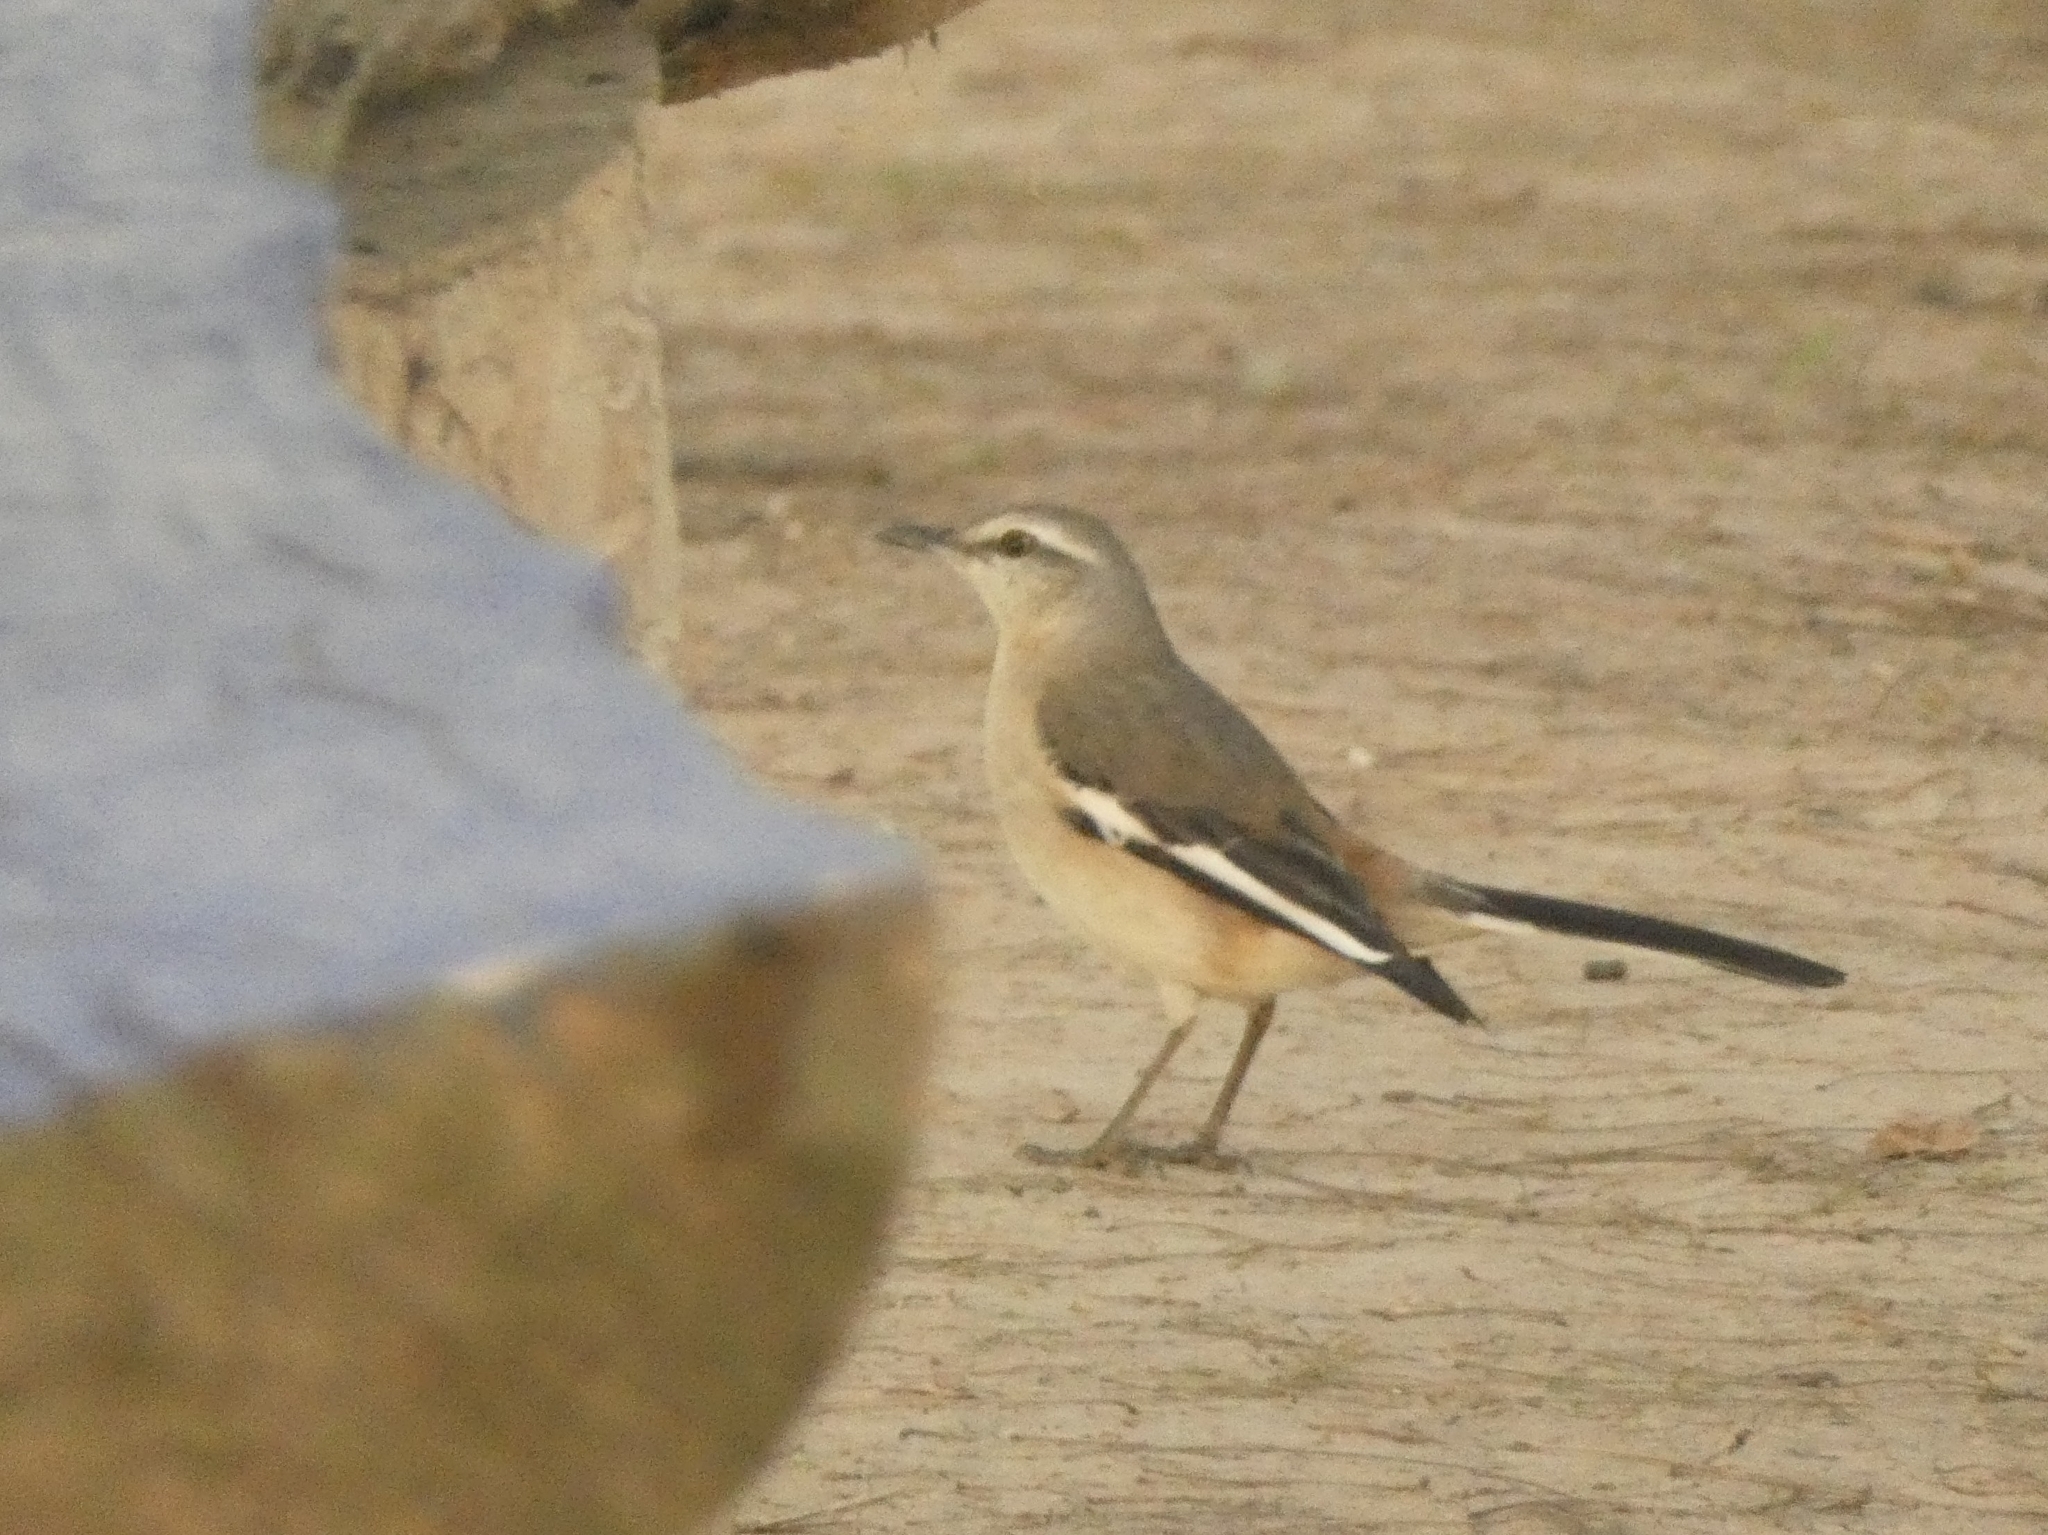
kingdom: Animalia
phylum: Chordata
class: Aves
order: Passeriformes
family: Mimidae
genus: Mimus
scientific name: Mimus triurus
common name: White-banded mockingbird
